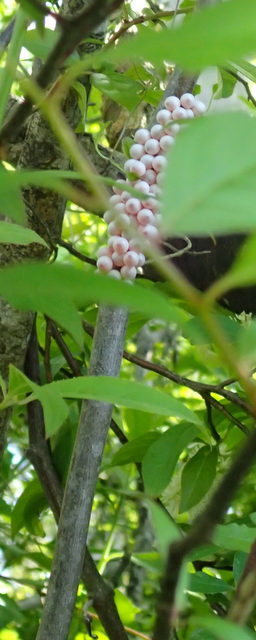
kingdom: Animalia
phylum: Mollusca
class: Gastropoda
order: Architaenioglossa
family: Ampullariidae
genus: Pomacea
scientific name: Pomacea paludosa
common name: Florida applesnail
